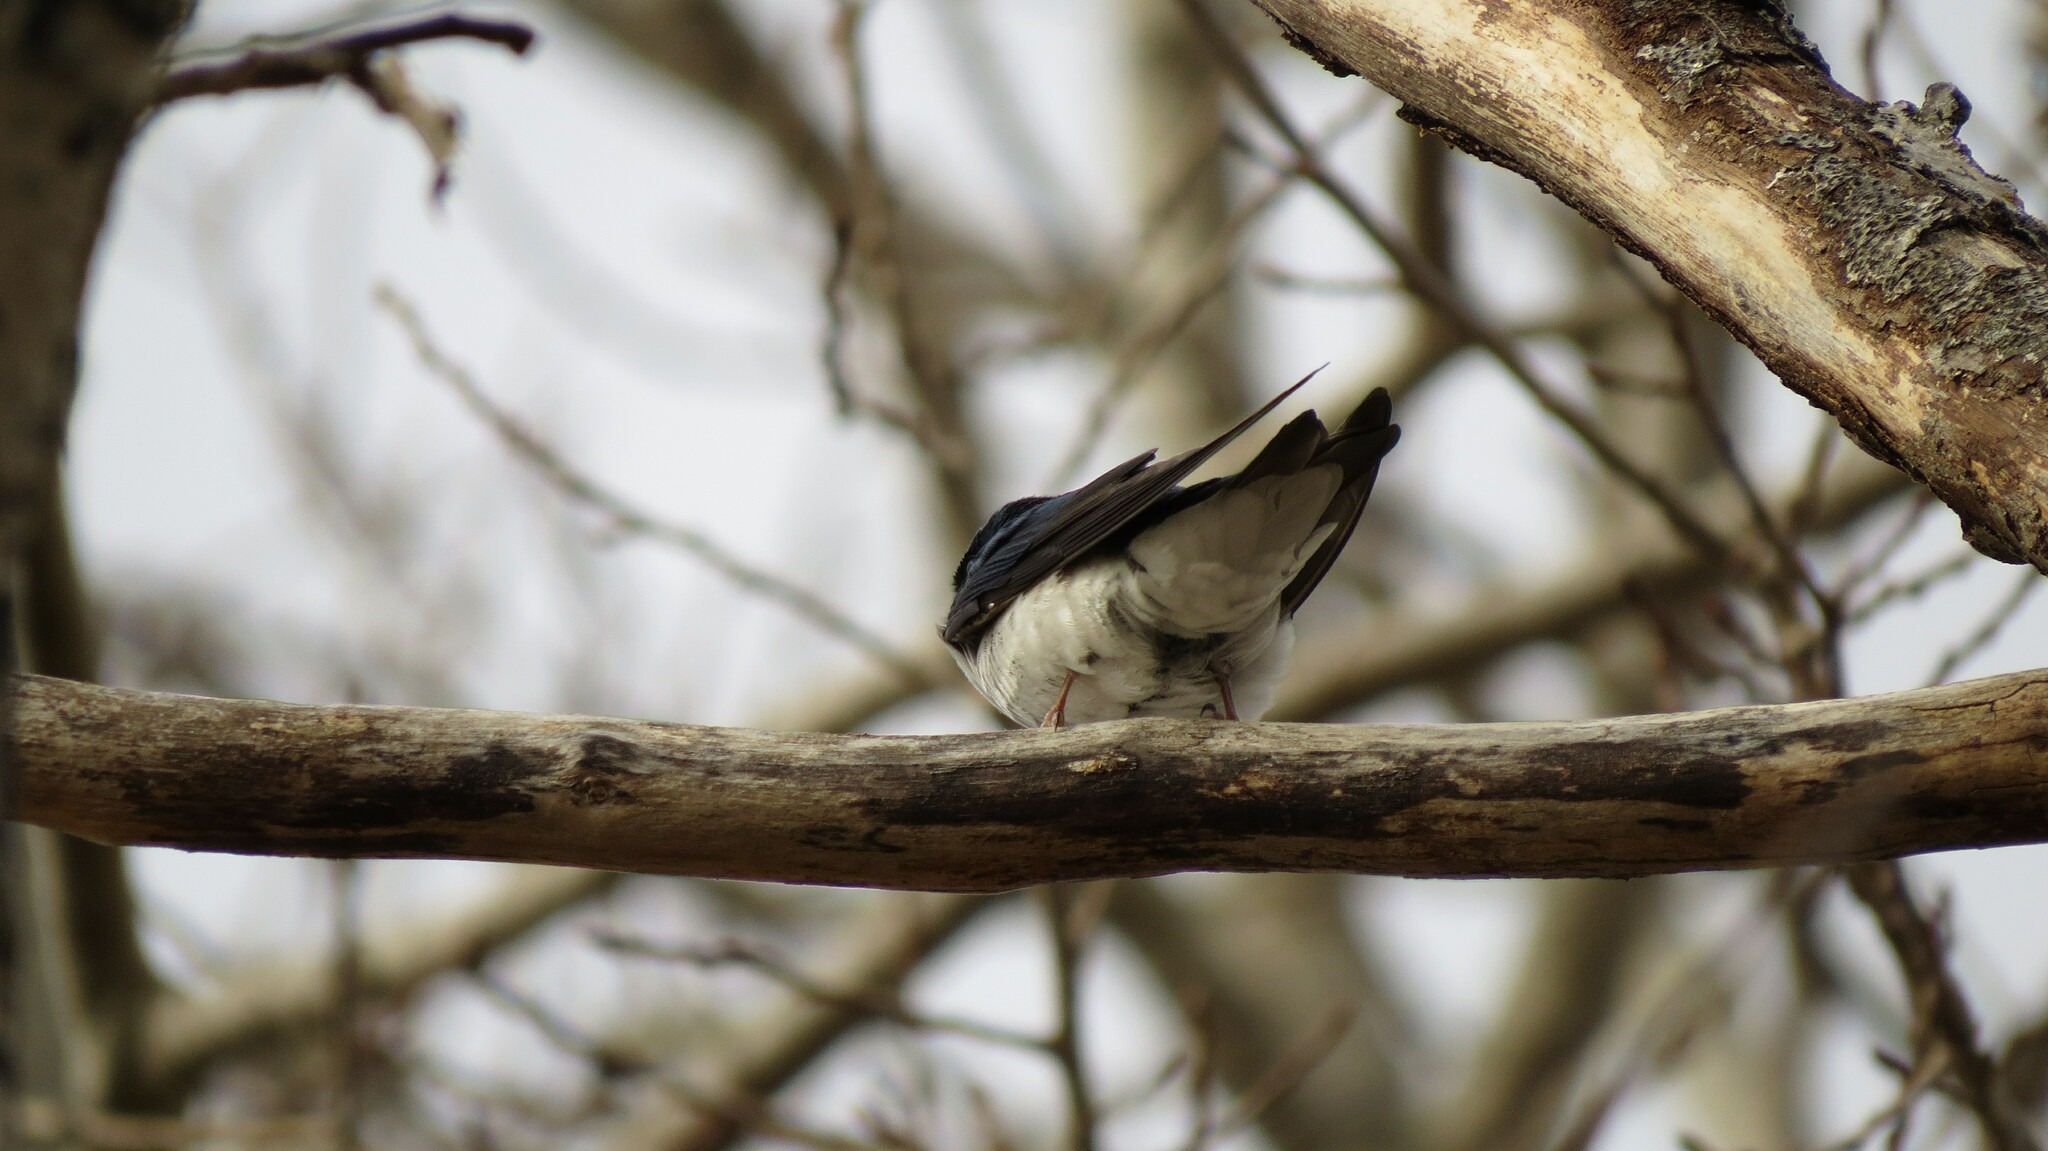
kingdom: Animalia
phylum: Chordata
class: Aves
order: Passeriformes
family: Hirundinidae
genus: Tachycineta
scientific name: Tachycineta bicolor
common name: Tree swallow
